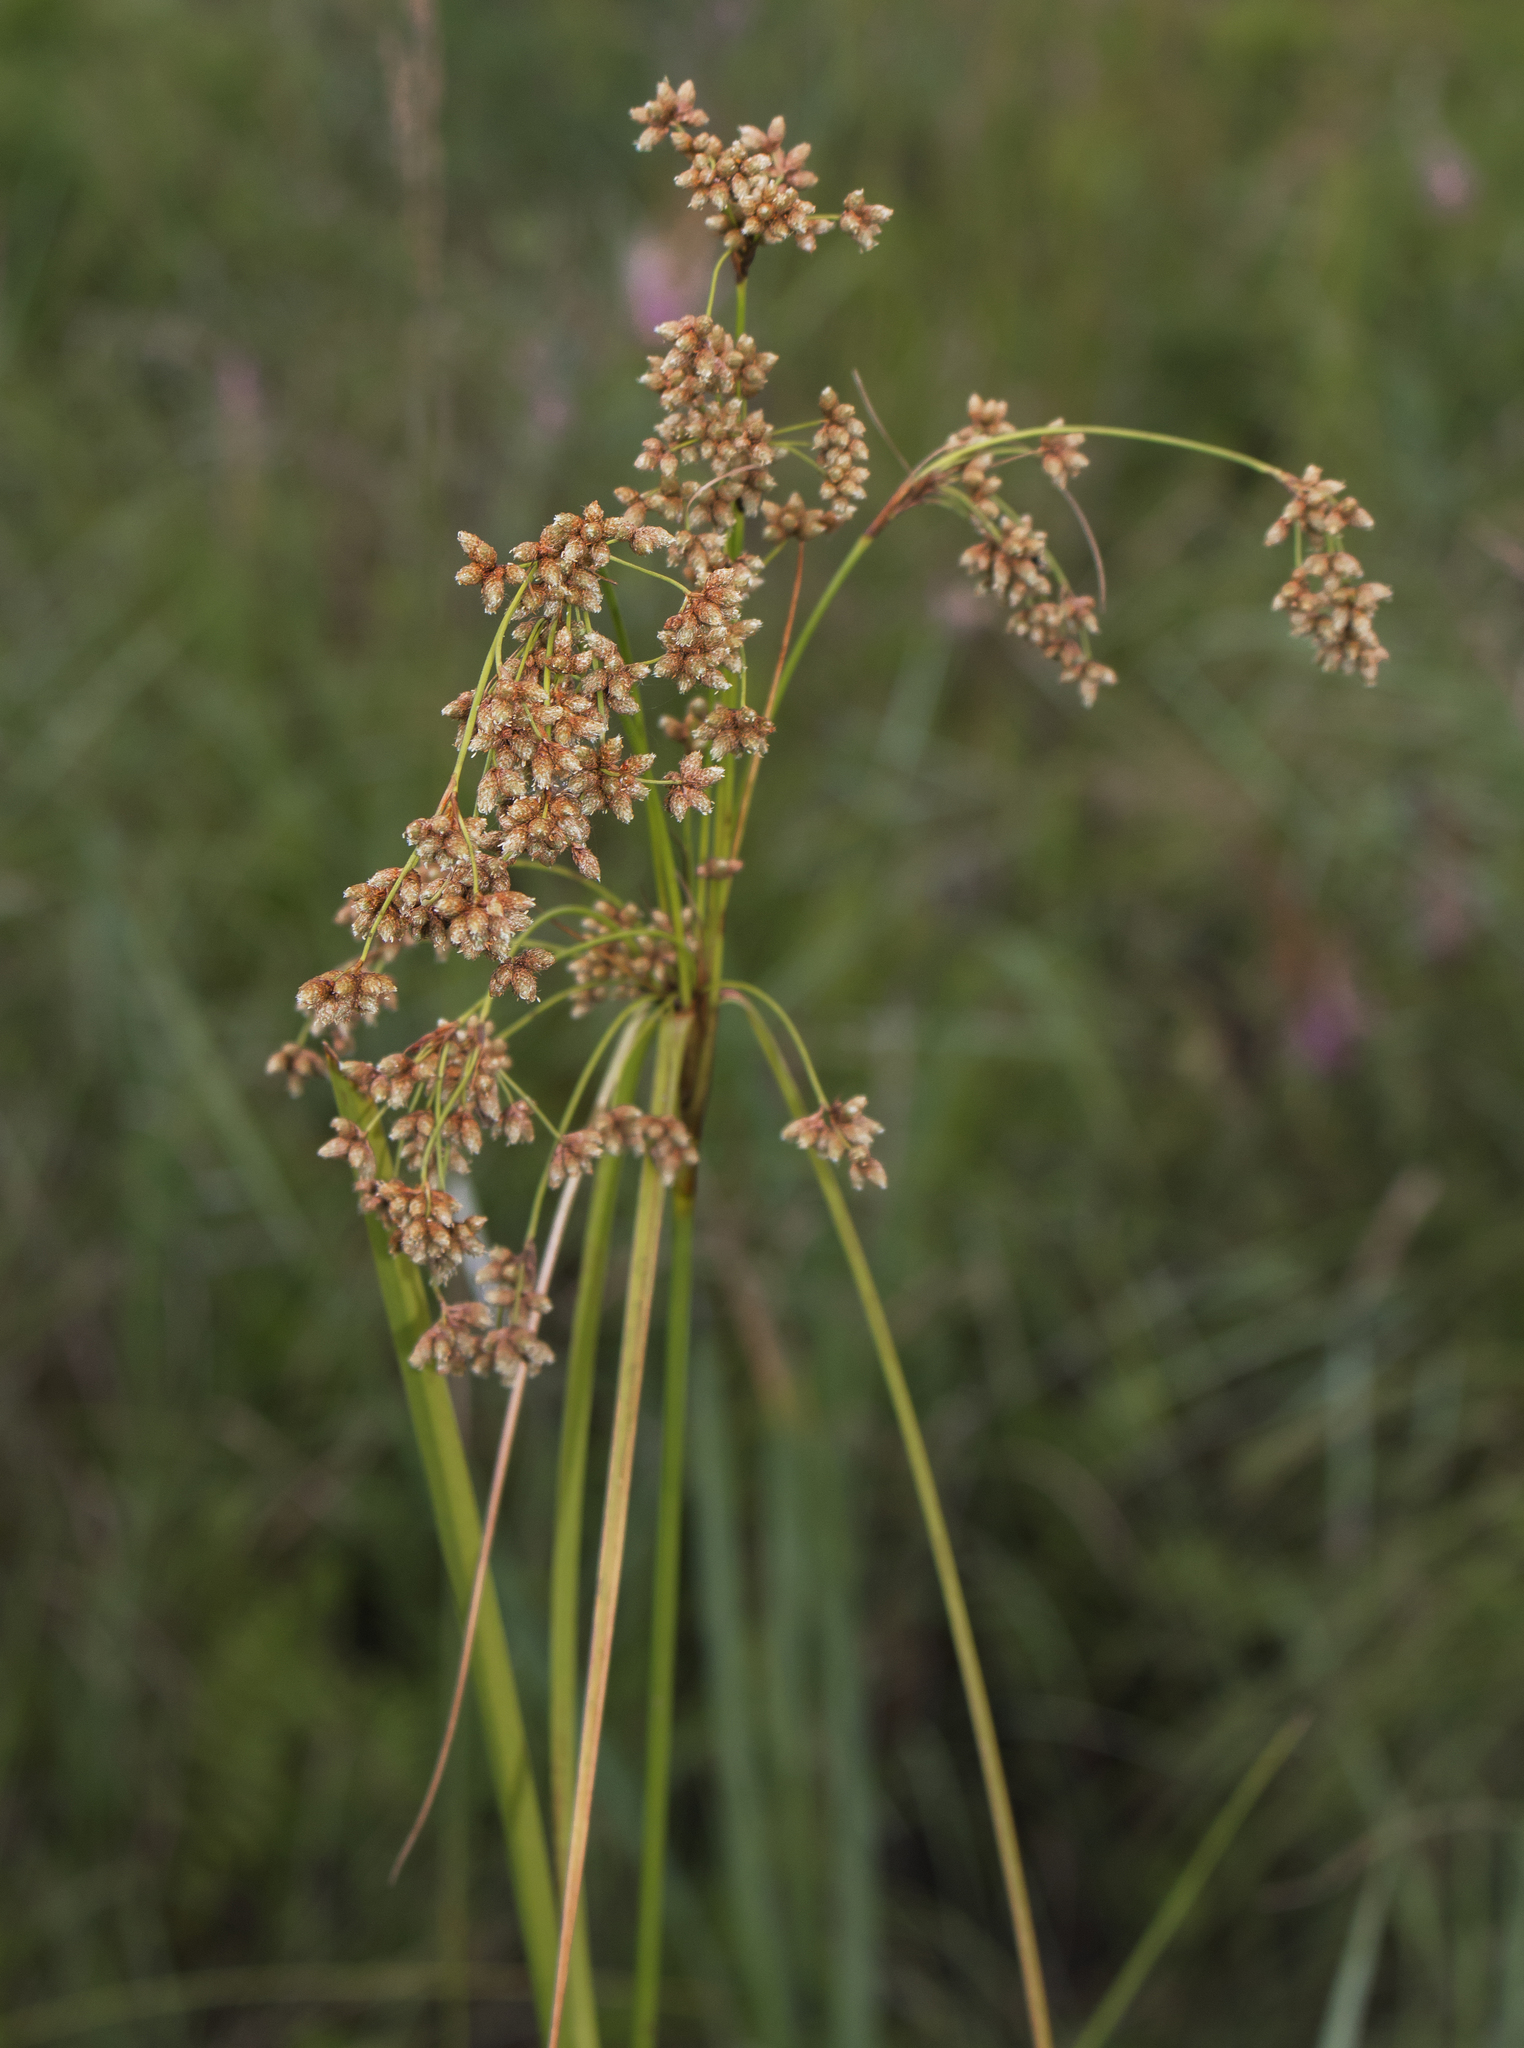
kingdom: Plantae
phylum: Tracheophyta
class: Liliopsida
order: Poales
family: Cyperaceae
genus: Scirpus
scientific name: Scirpus cyperinus
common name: Black-sheathed bulrush
